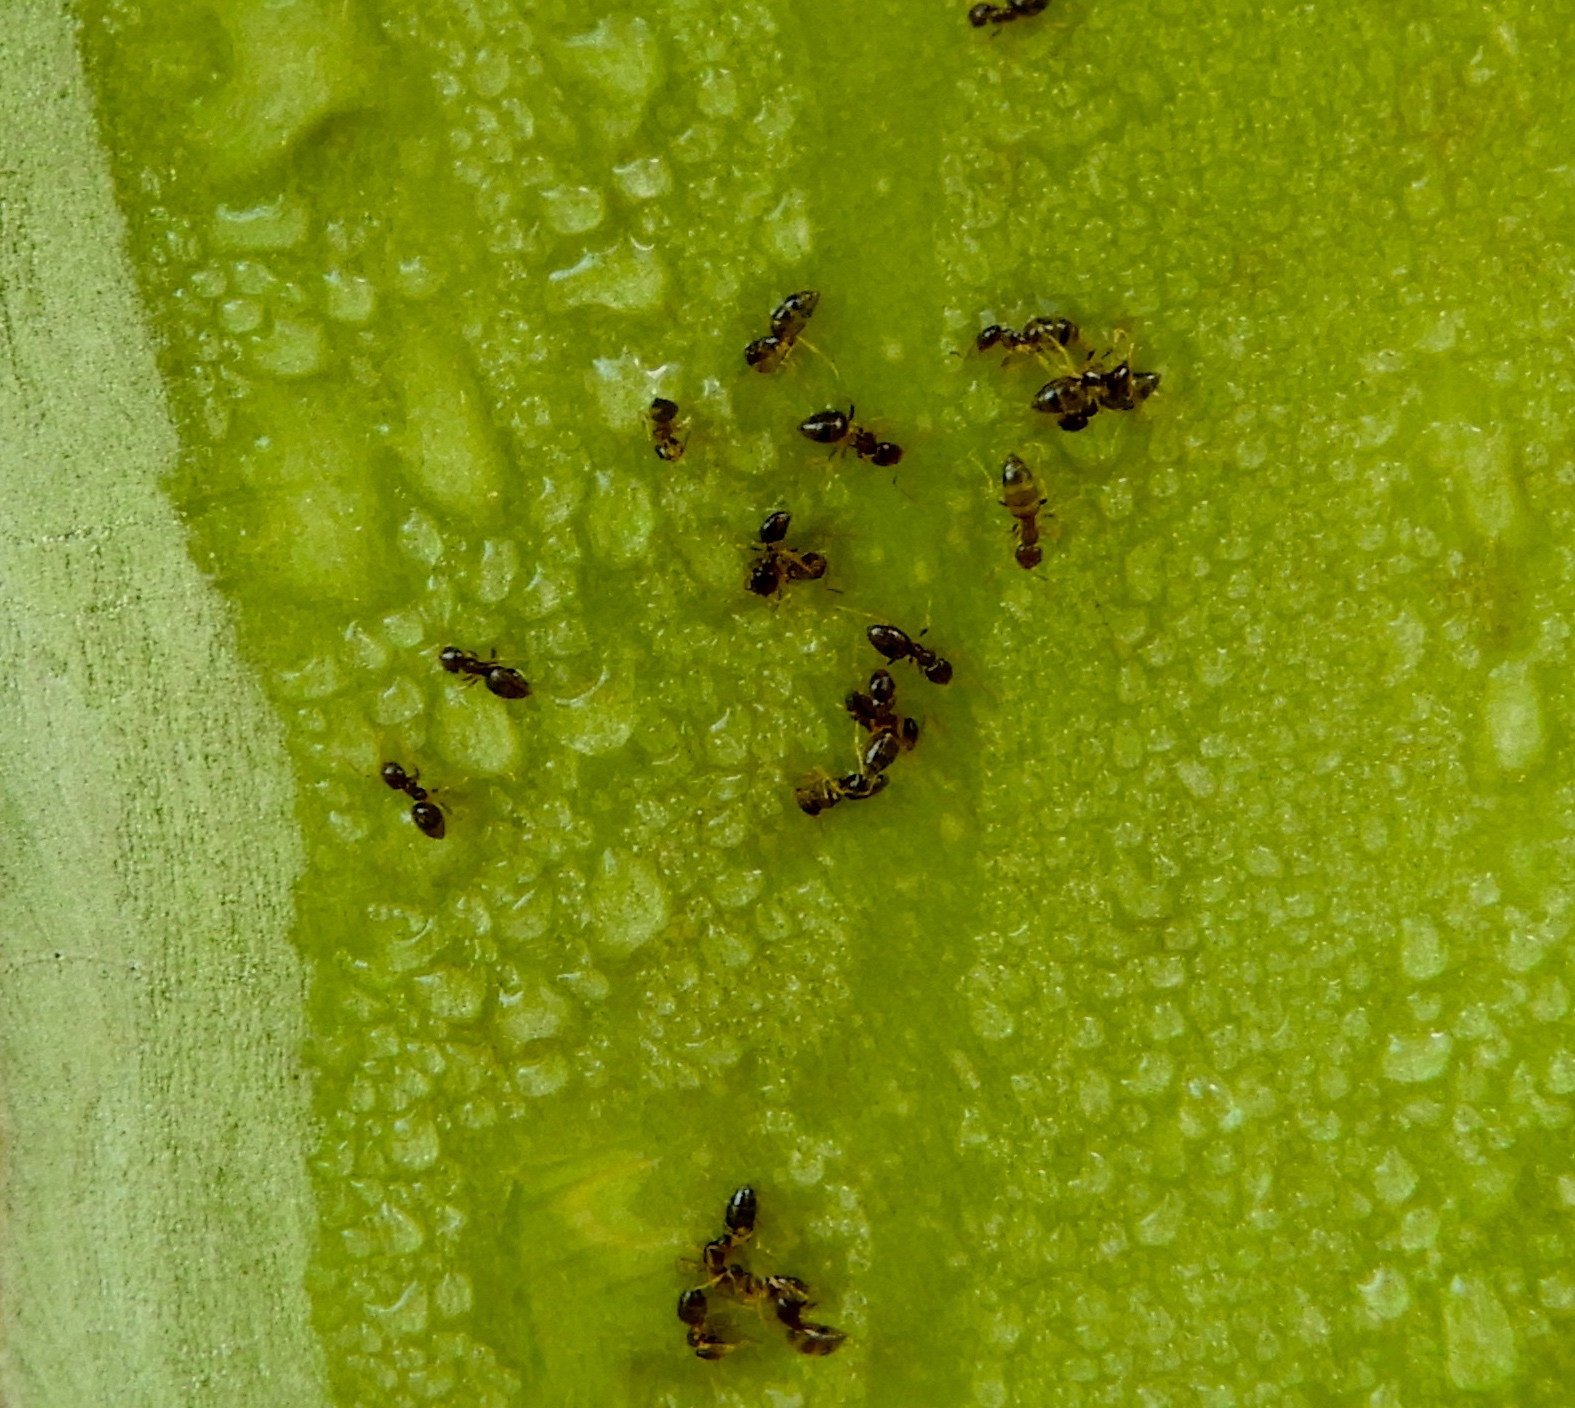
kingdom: Animalia
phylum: Arthropoda
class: Insecta
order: Hymenoptera
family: Formicidae
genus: Brachymyrmex
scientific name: Brachymyrmex
